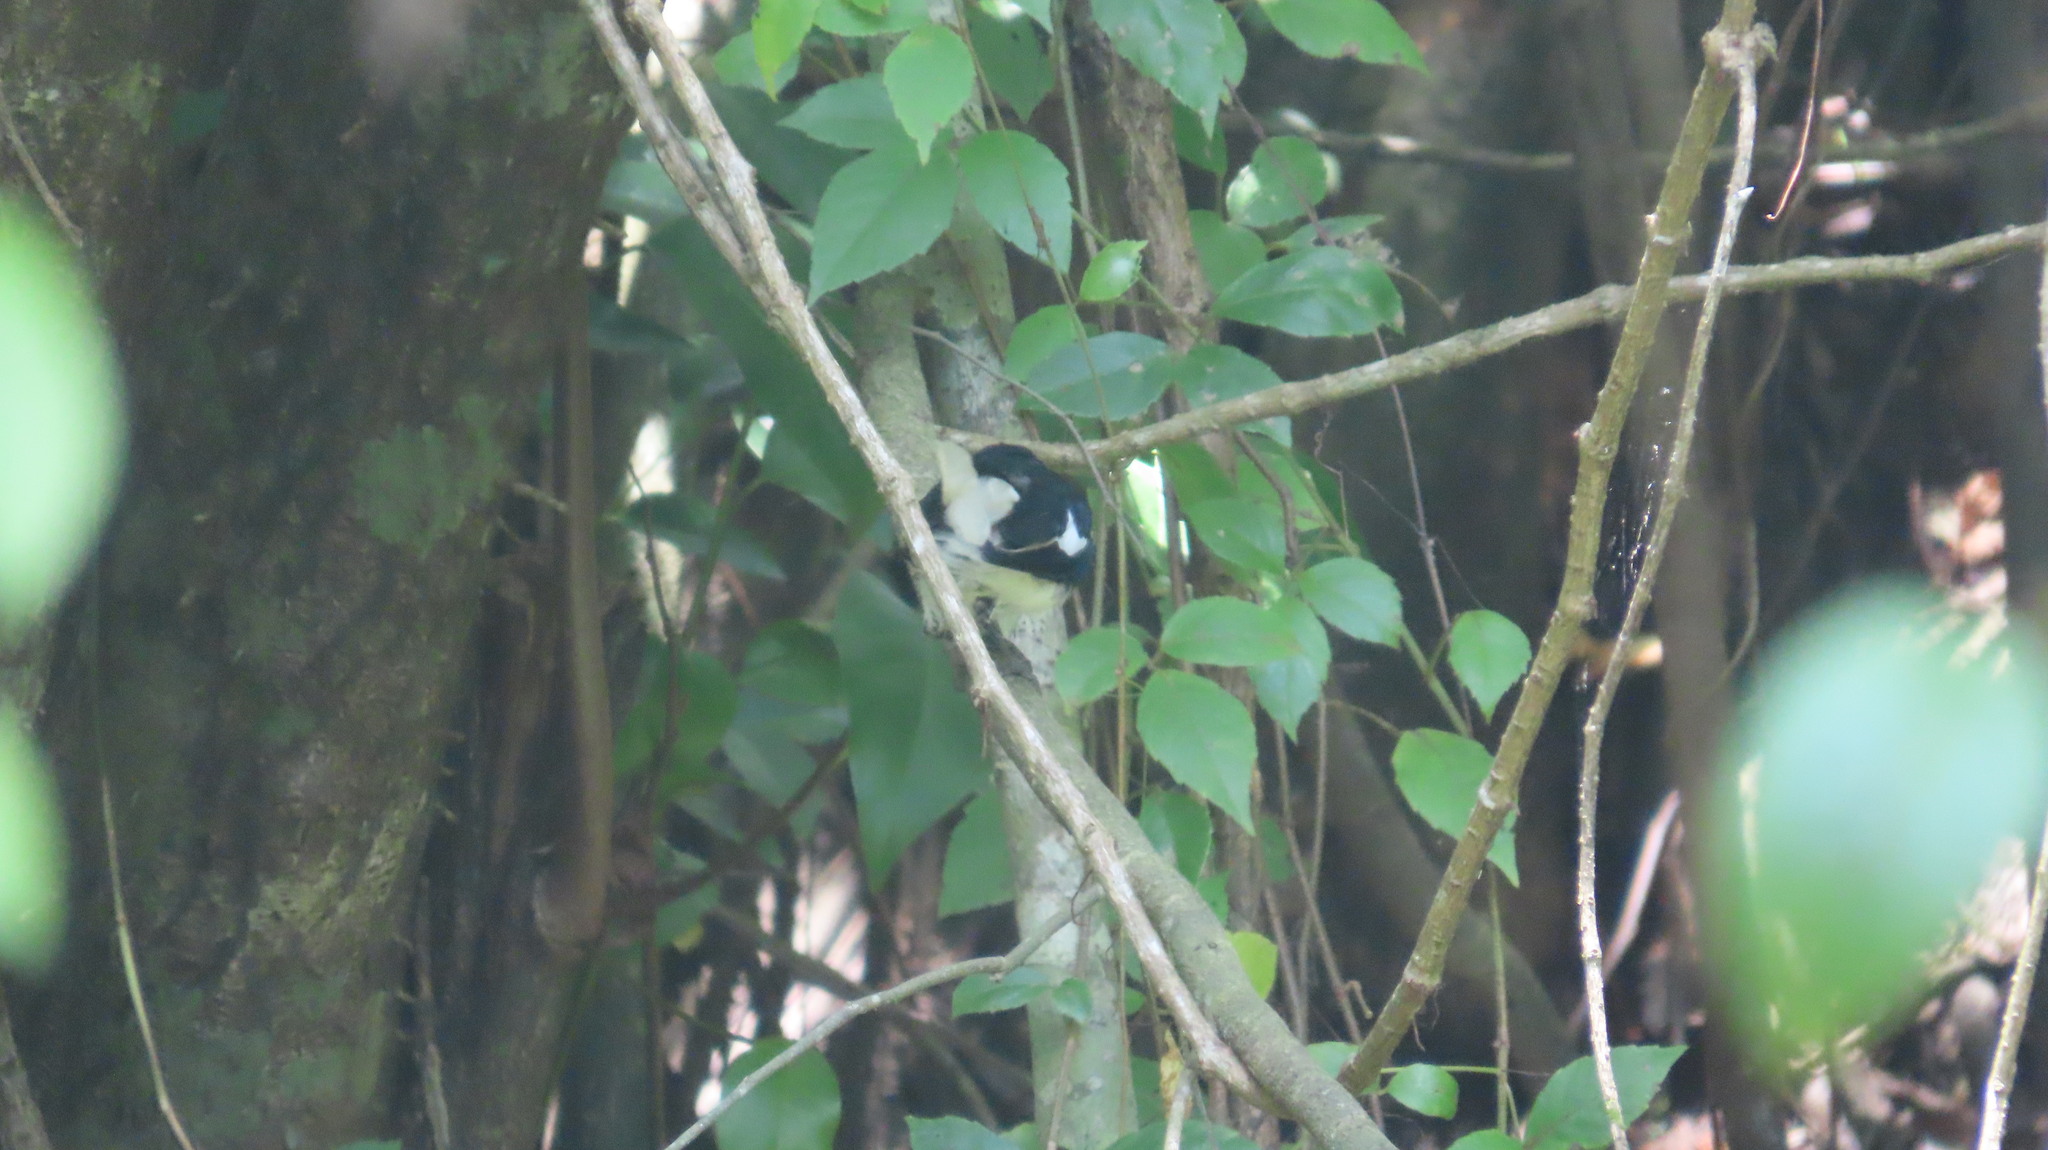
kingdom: Animalia
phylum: Chordata
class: Aves
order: Passeriformes
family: Muscicapidae
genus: Copsychus
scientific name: Copsychus saularis
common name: Oriental magpie-robin
